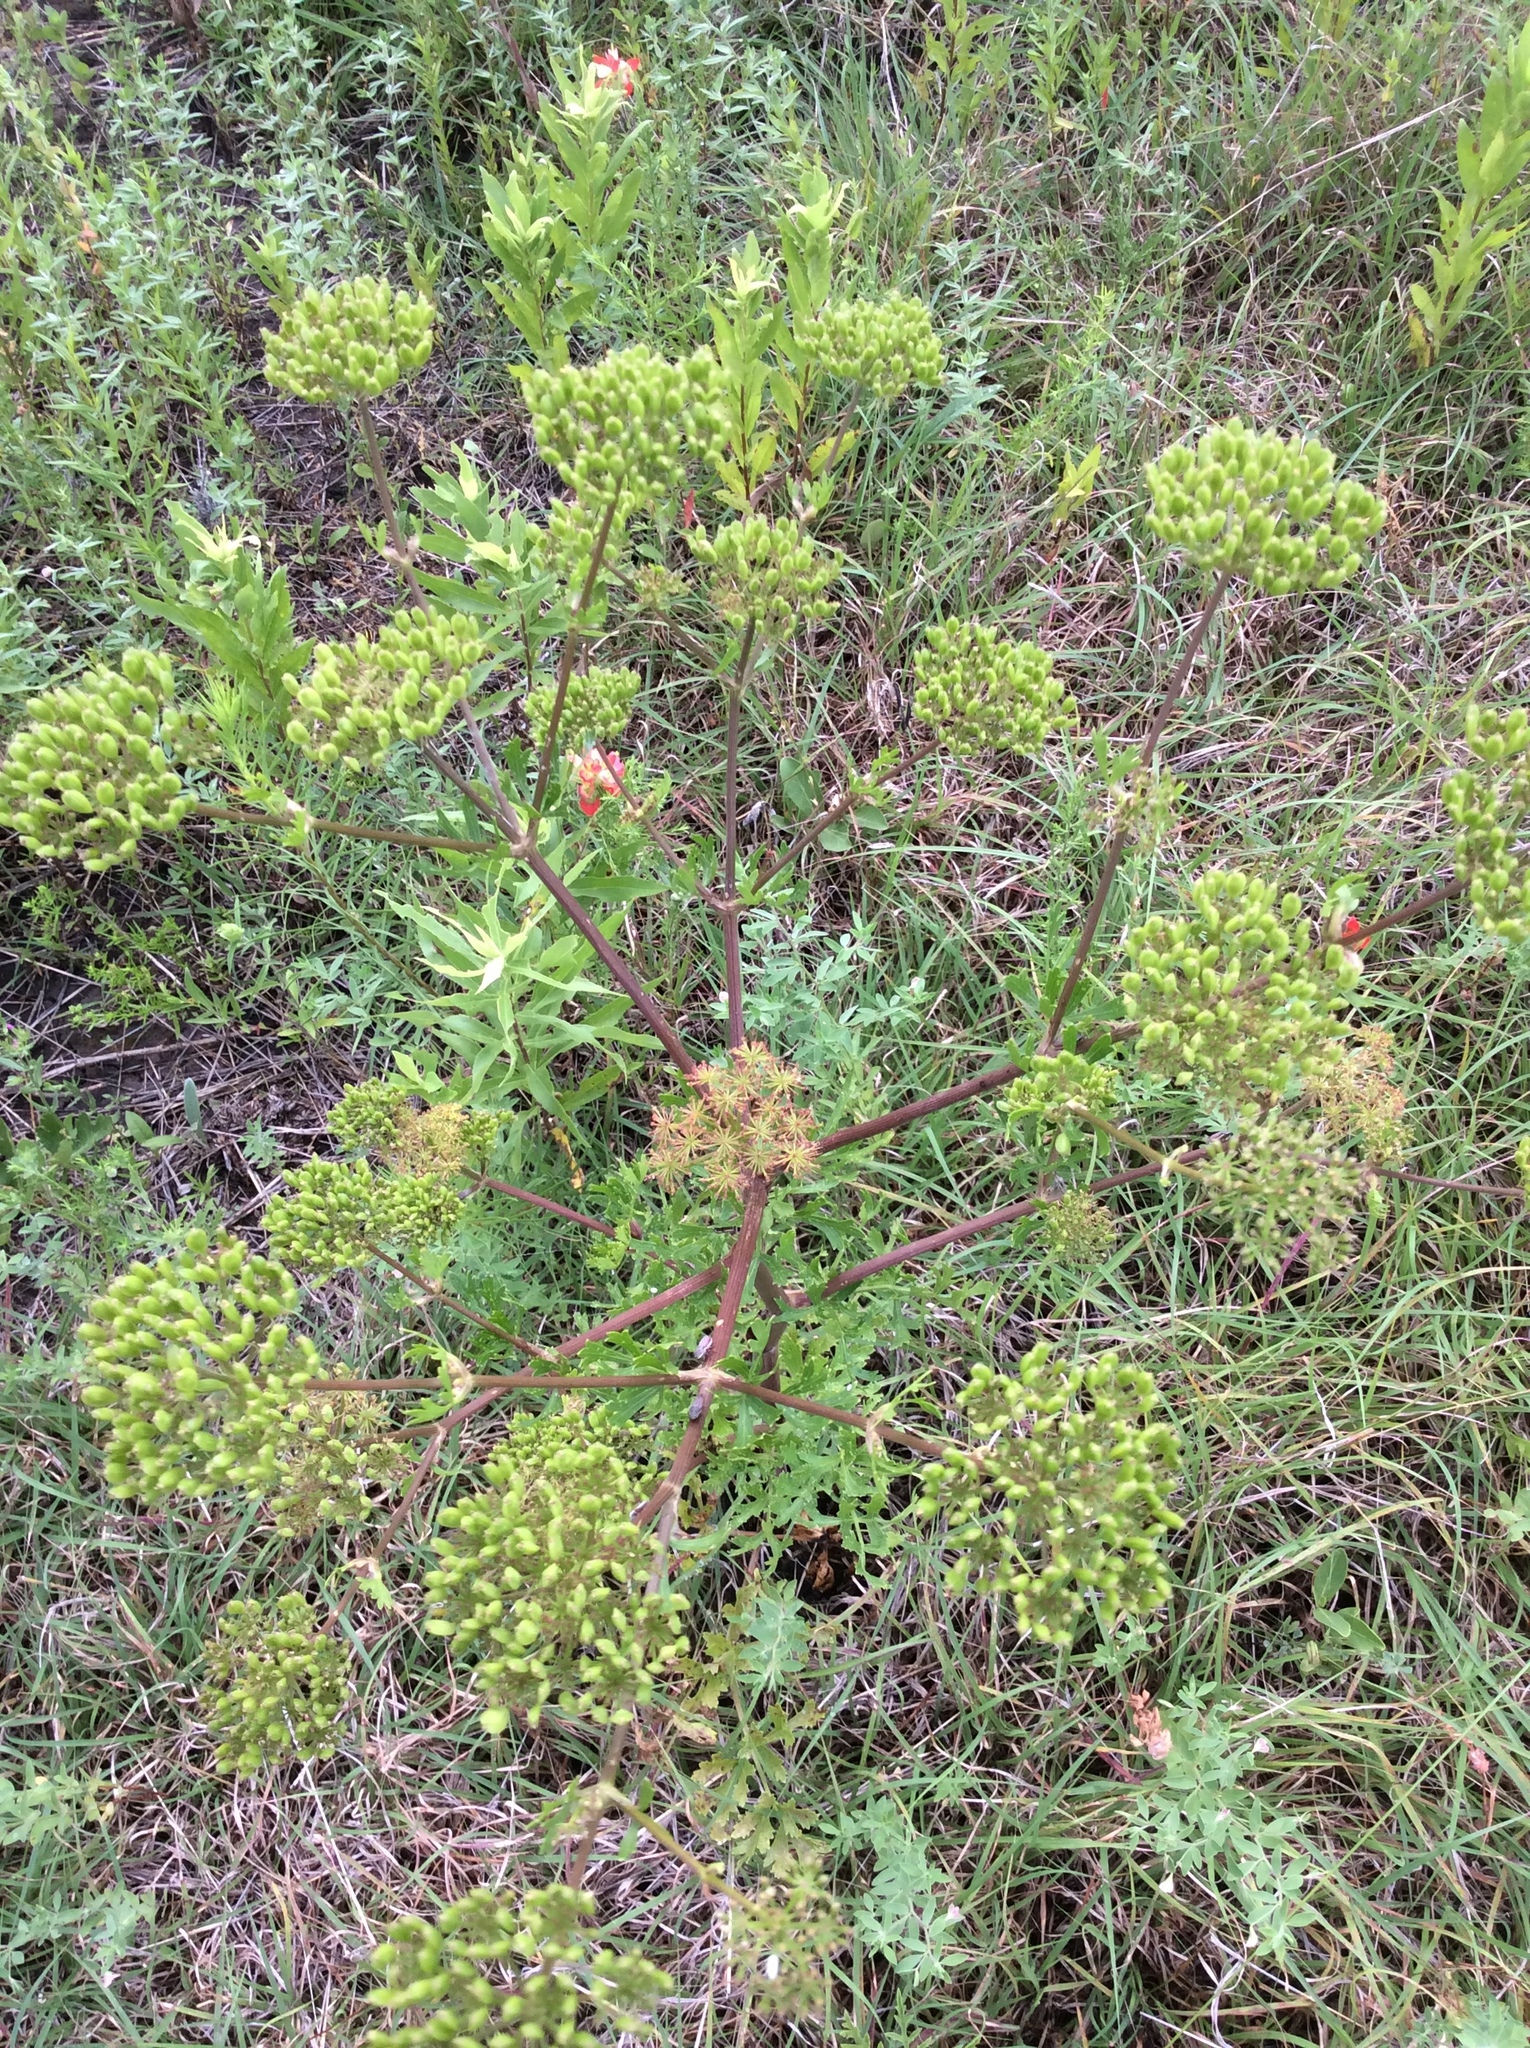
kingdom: Plantae
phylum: Tracheophyta
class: Magnoliopsida
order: Apiales
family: Apiaceae
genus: Polytaenia
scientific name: Polytaenia texana
